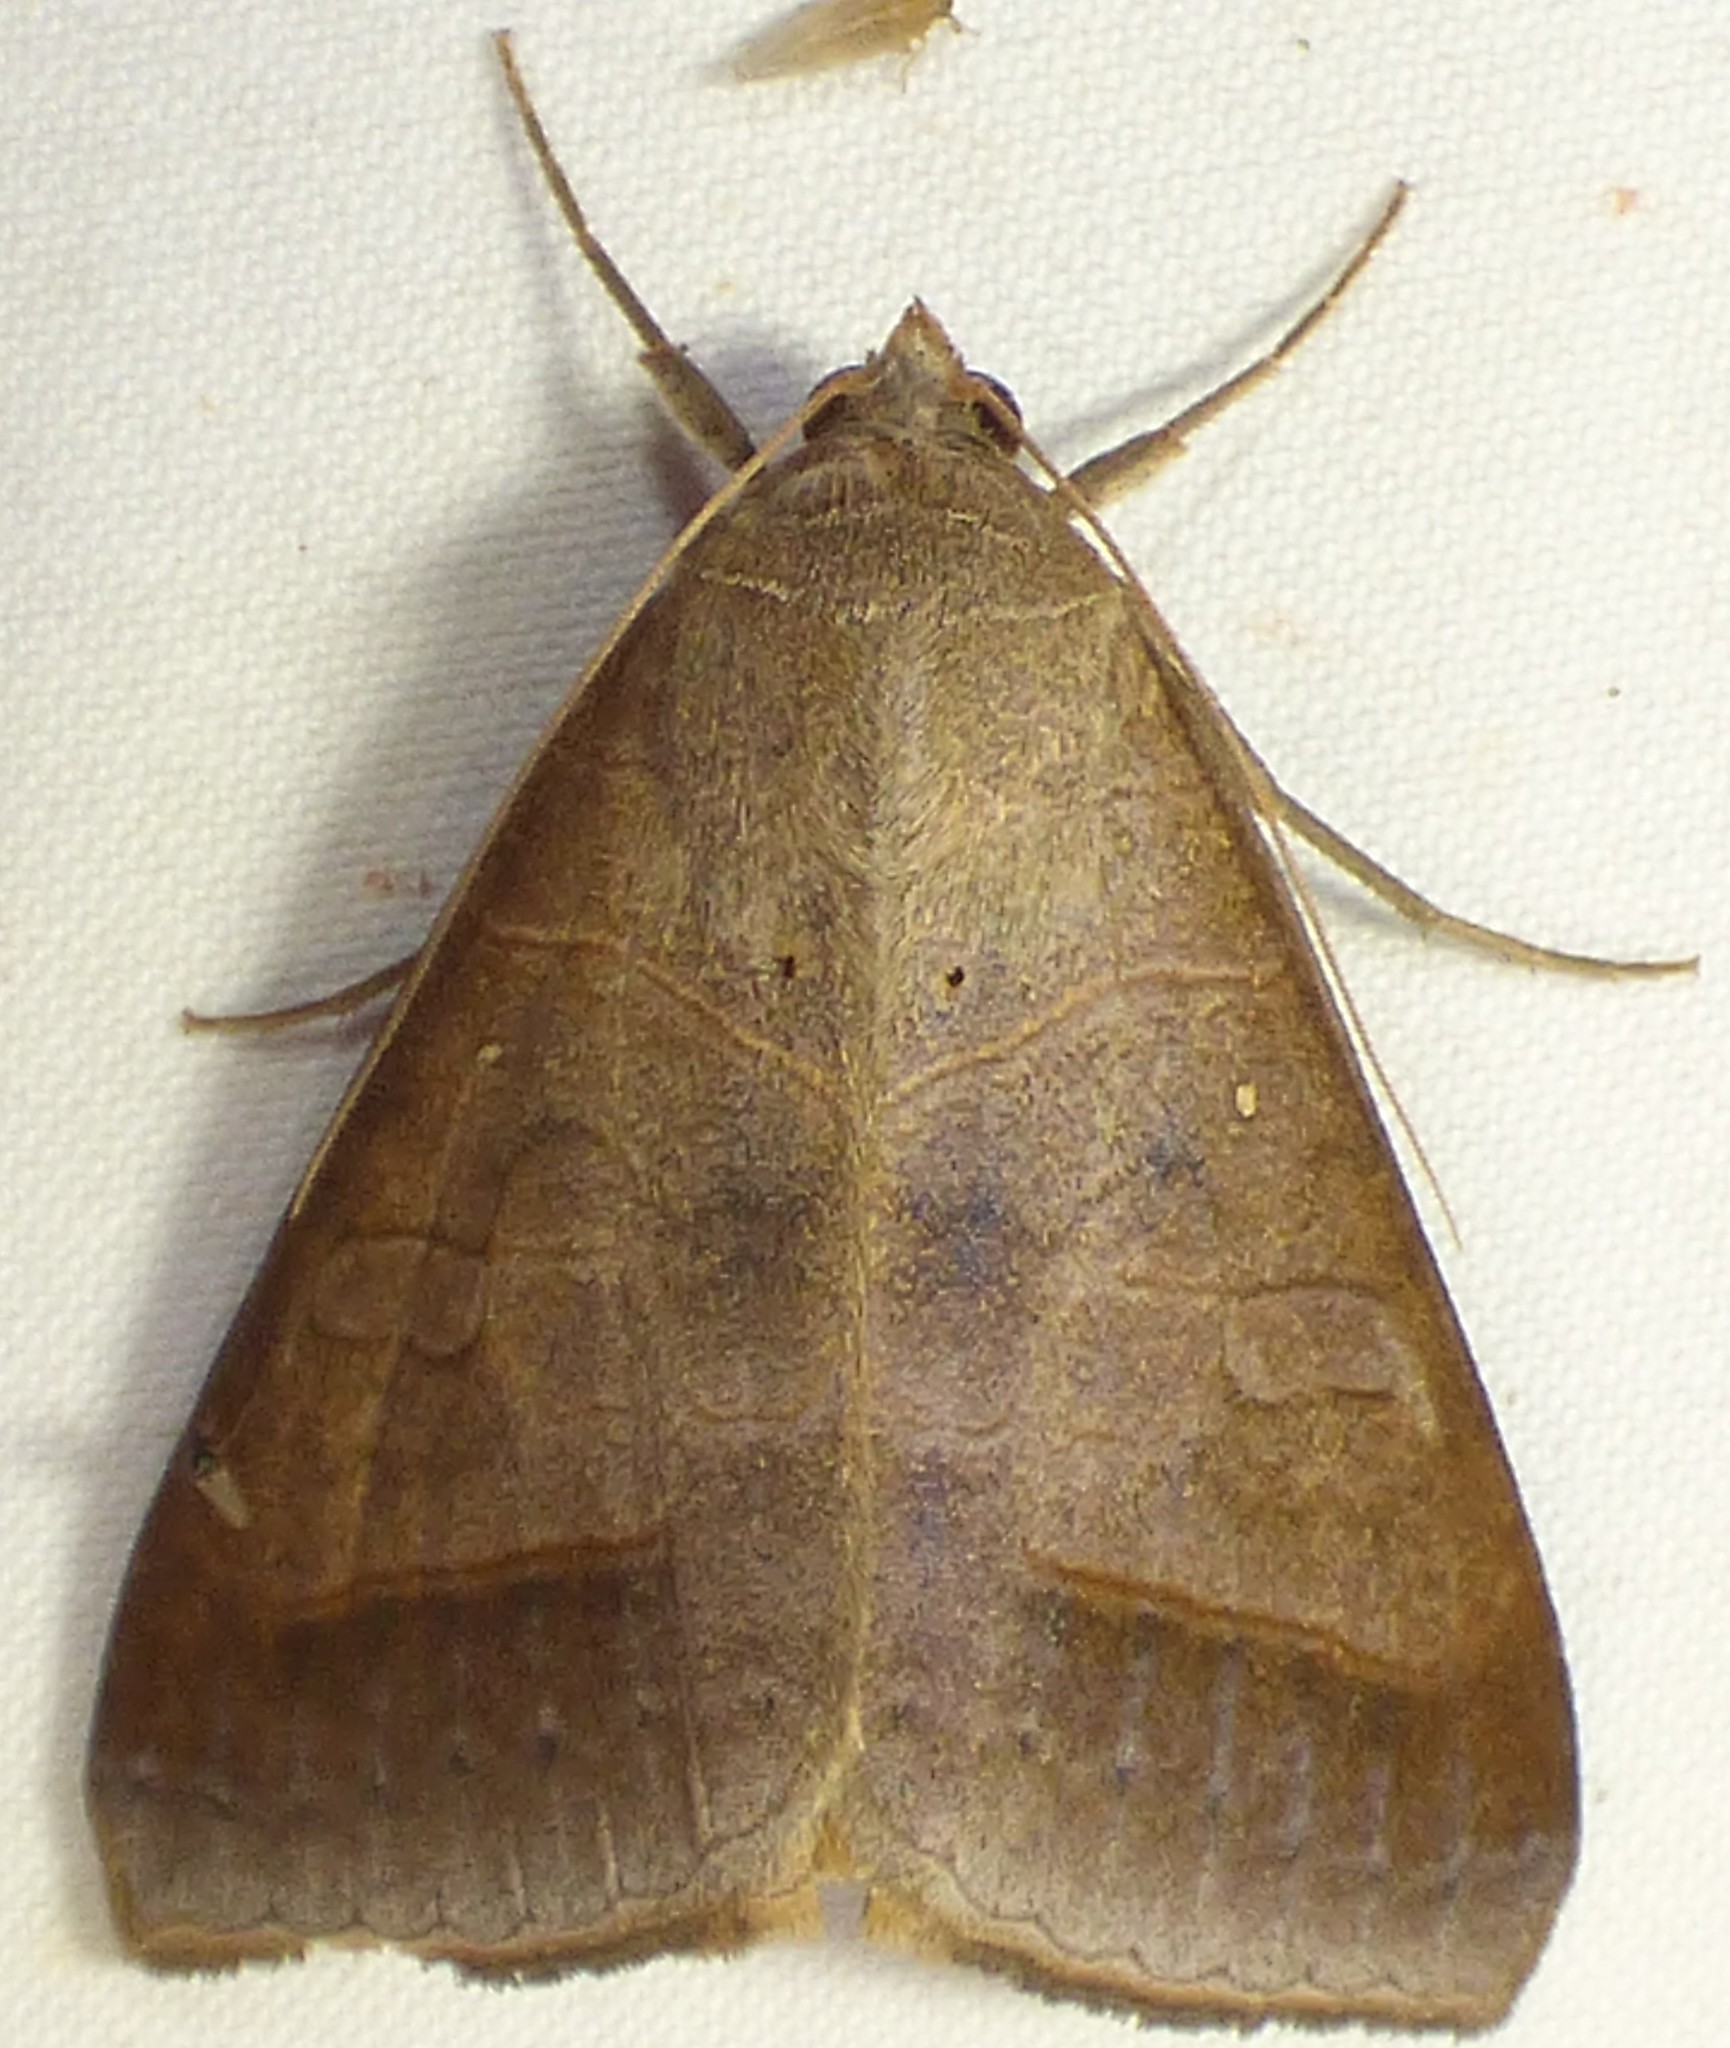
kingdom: Animalia
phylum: Arthropoda
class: Insecta
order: Lepidoptera
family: Erebidae
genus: Mocis
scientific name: Mocis marcida
